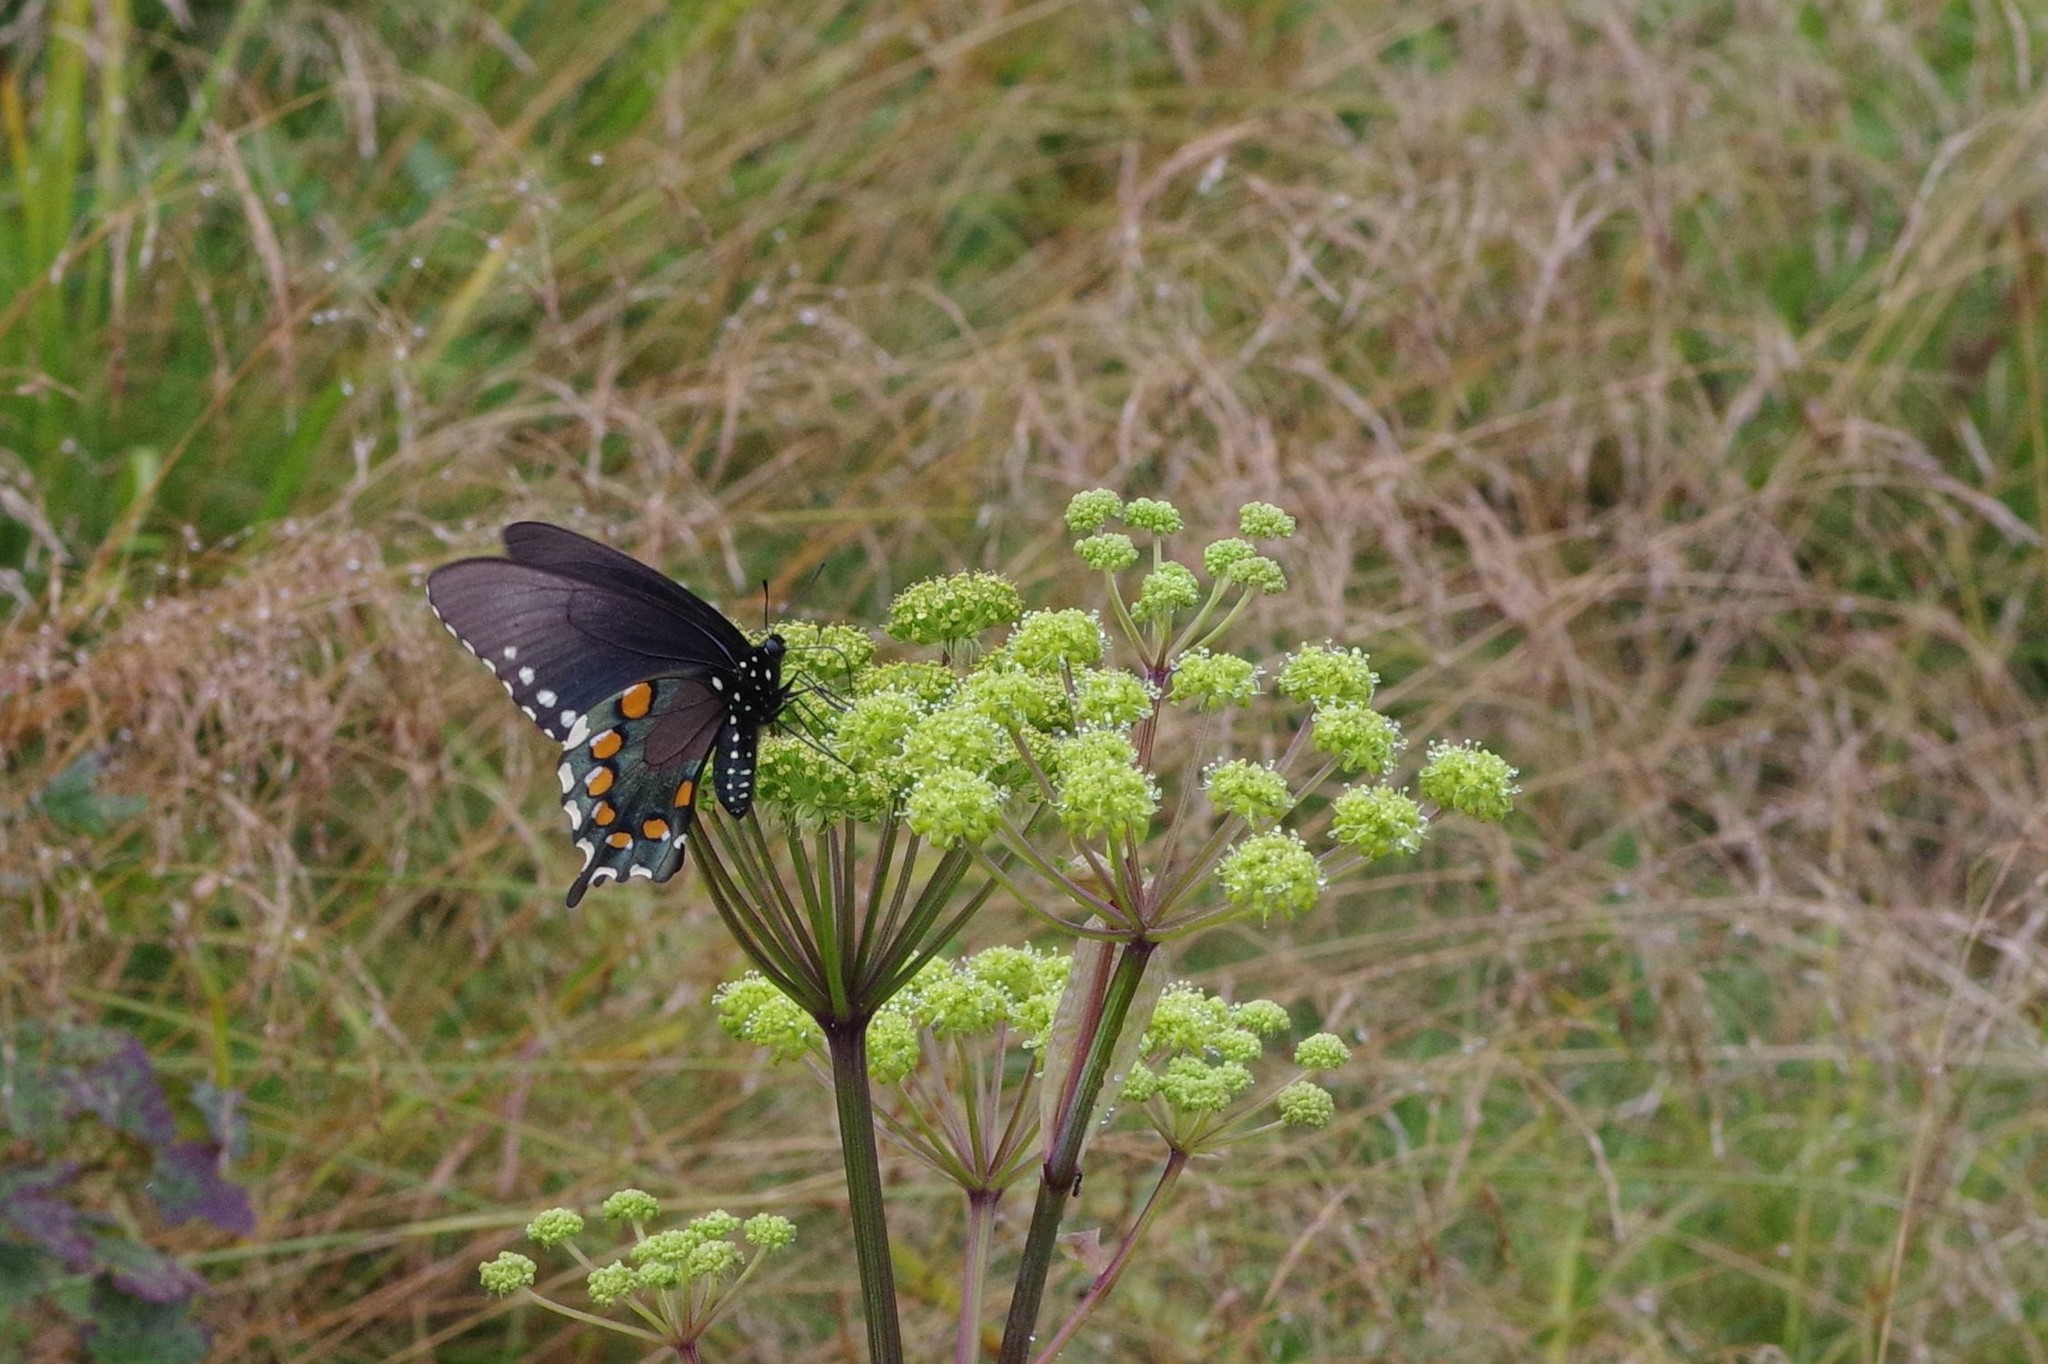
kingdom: Animalia
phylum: Arthropoda
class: Insecta
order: Lepidoptera
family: Papilionidae
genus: Battus
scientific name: Battus philenor
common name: Pipevine swallowtail
